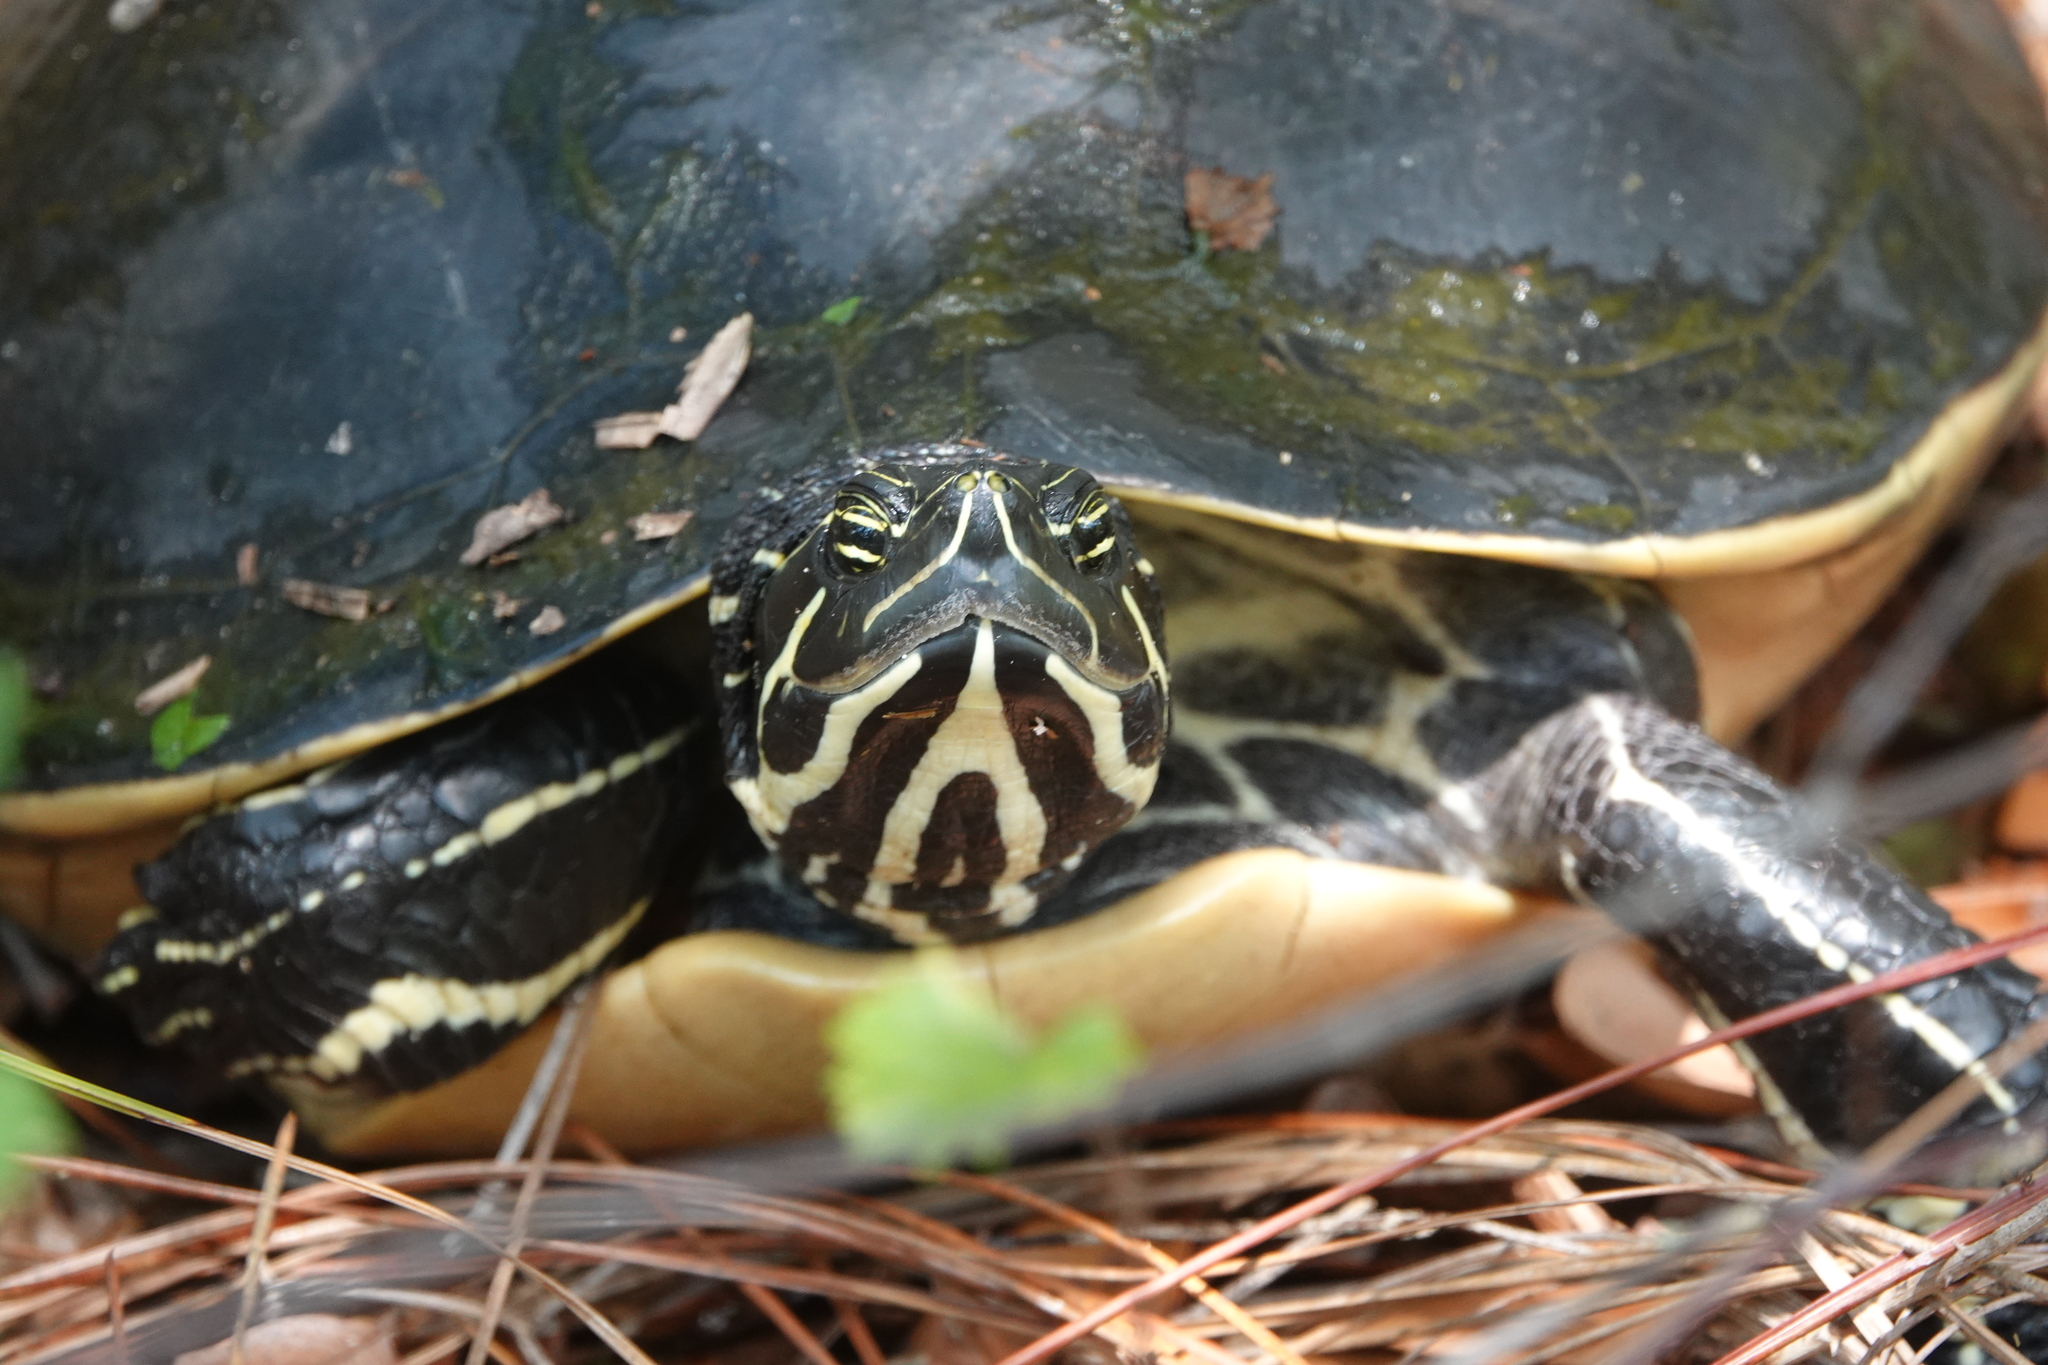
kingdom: Animalia
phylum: Chordata
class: Testudines
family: Emydidae
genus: Pseudemys
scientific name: Pseudemys peninsularis
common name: Peninsula cooter
